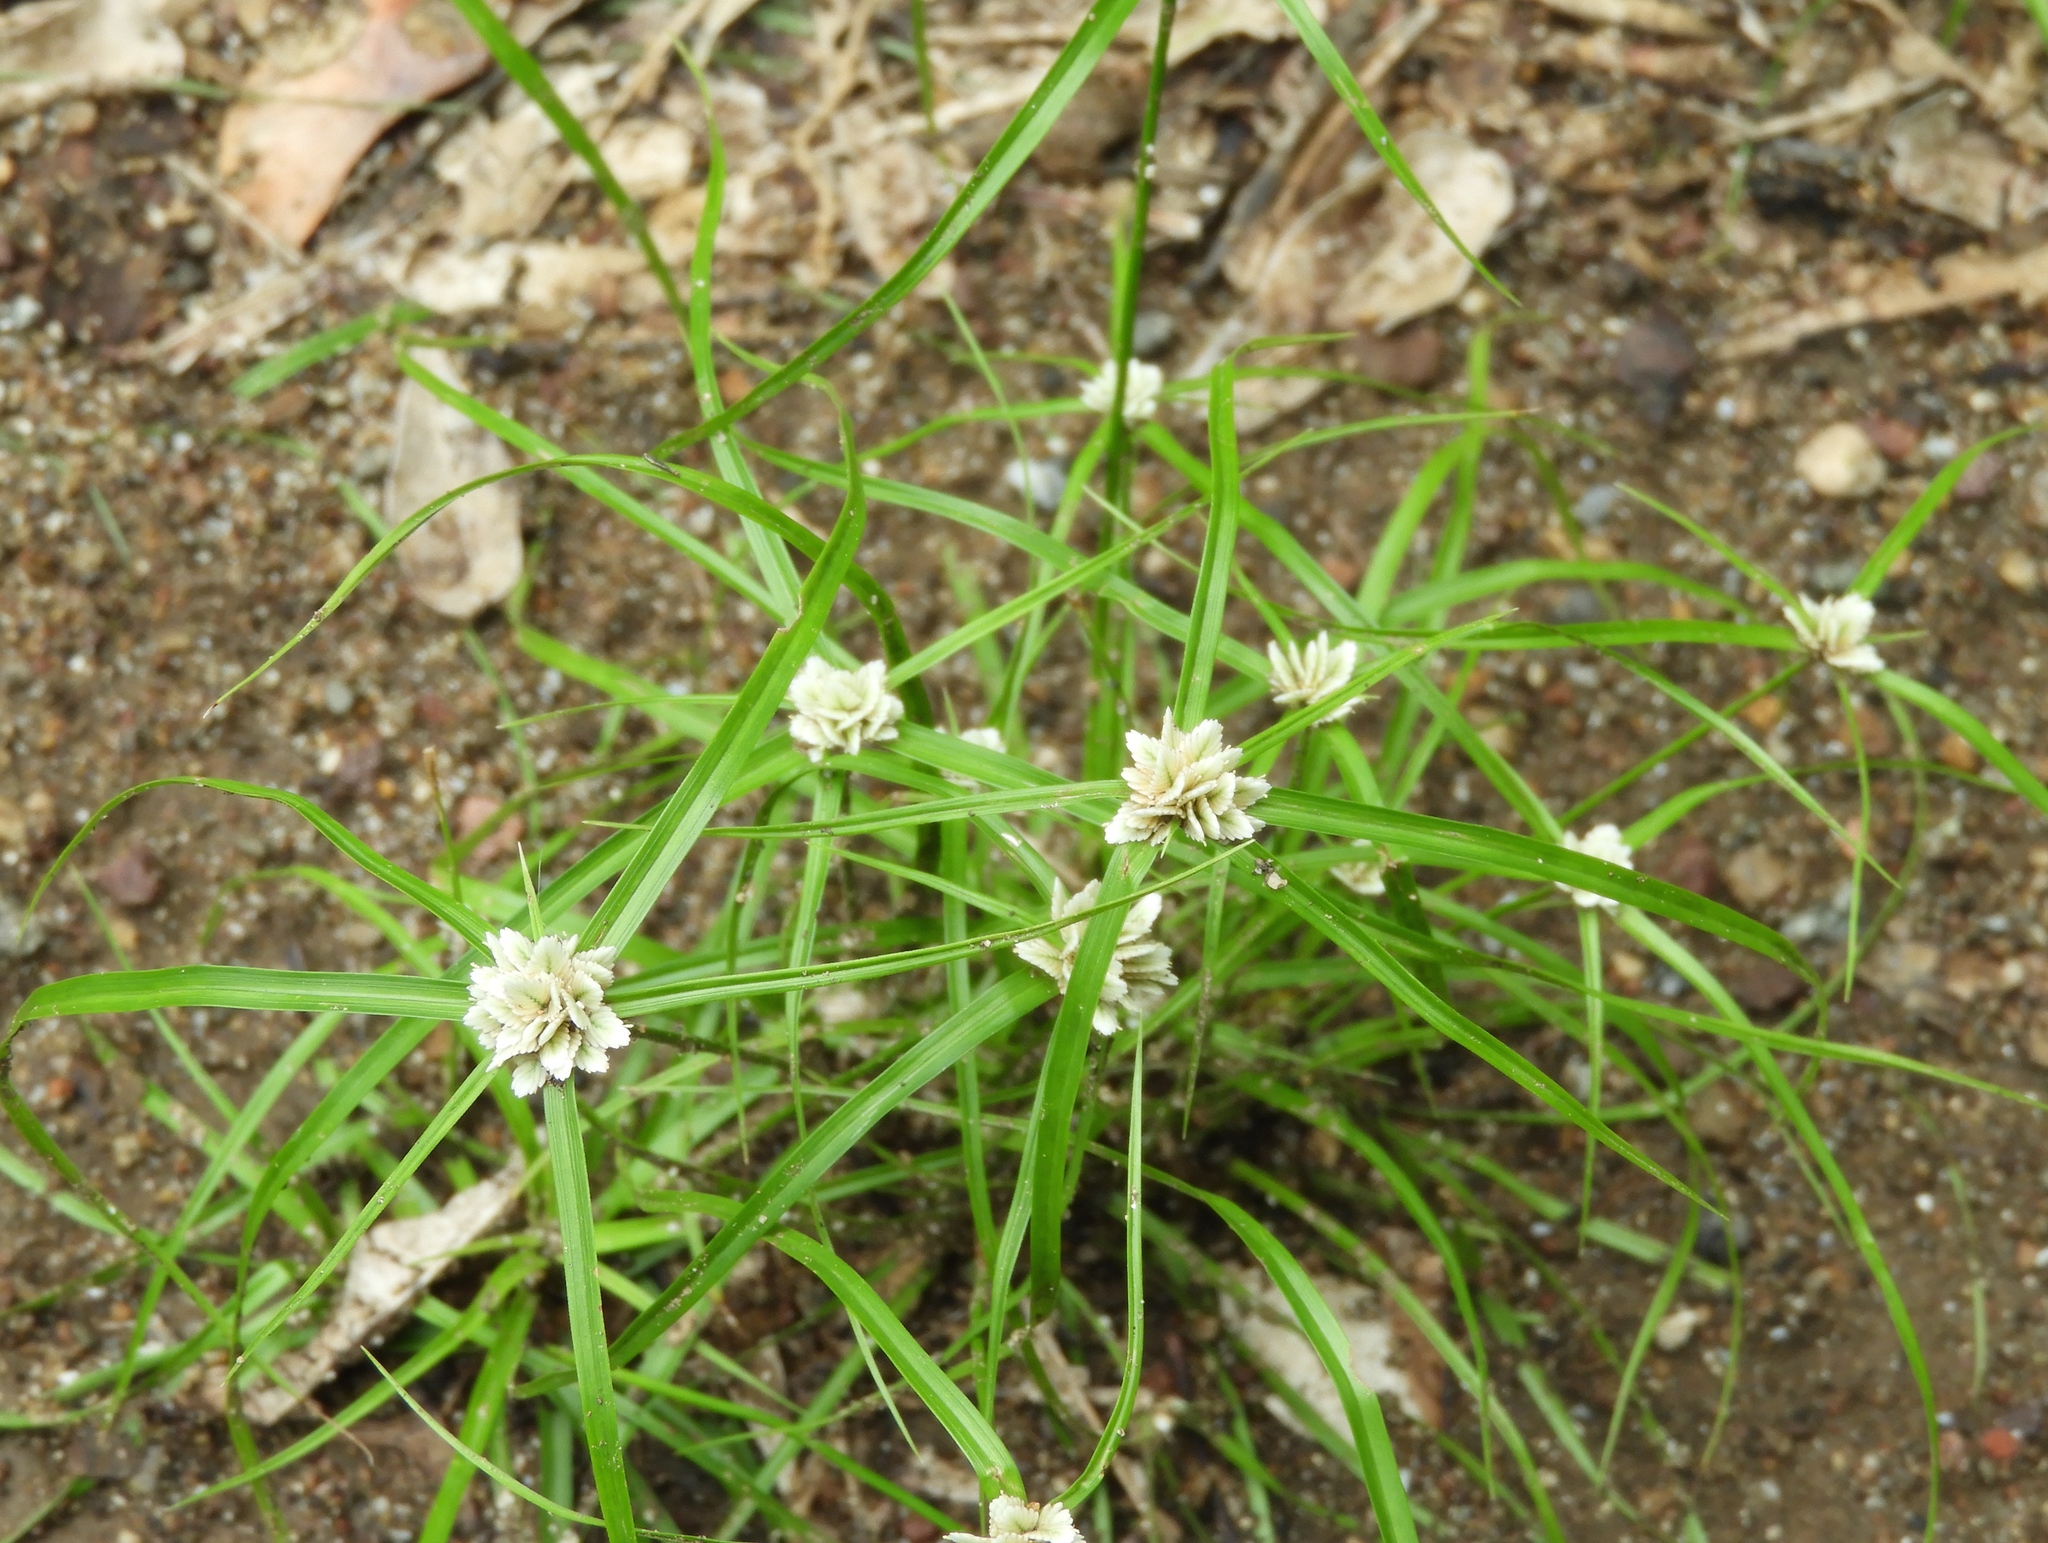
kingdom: Plantae
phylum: Tracheophyta
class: Liliopsida
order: Poales
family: Cyperaceae
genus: Cyperus
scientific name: Cyperus tenerrimus
